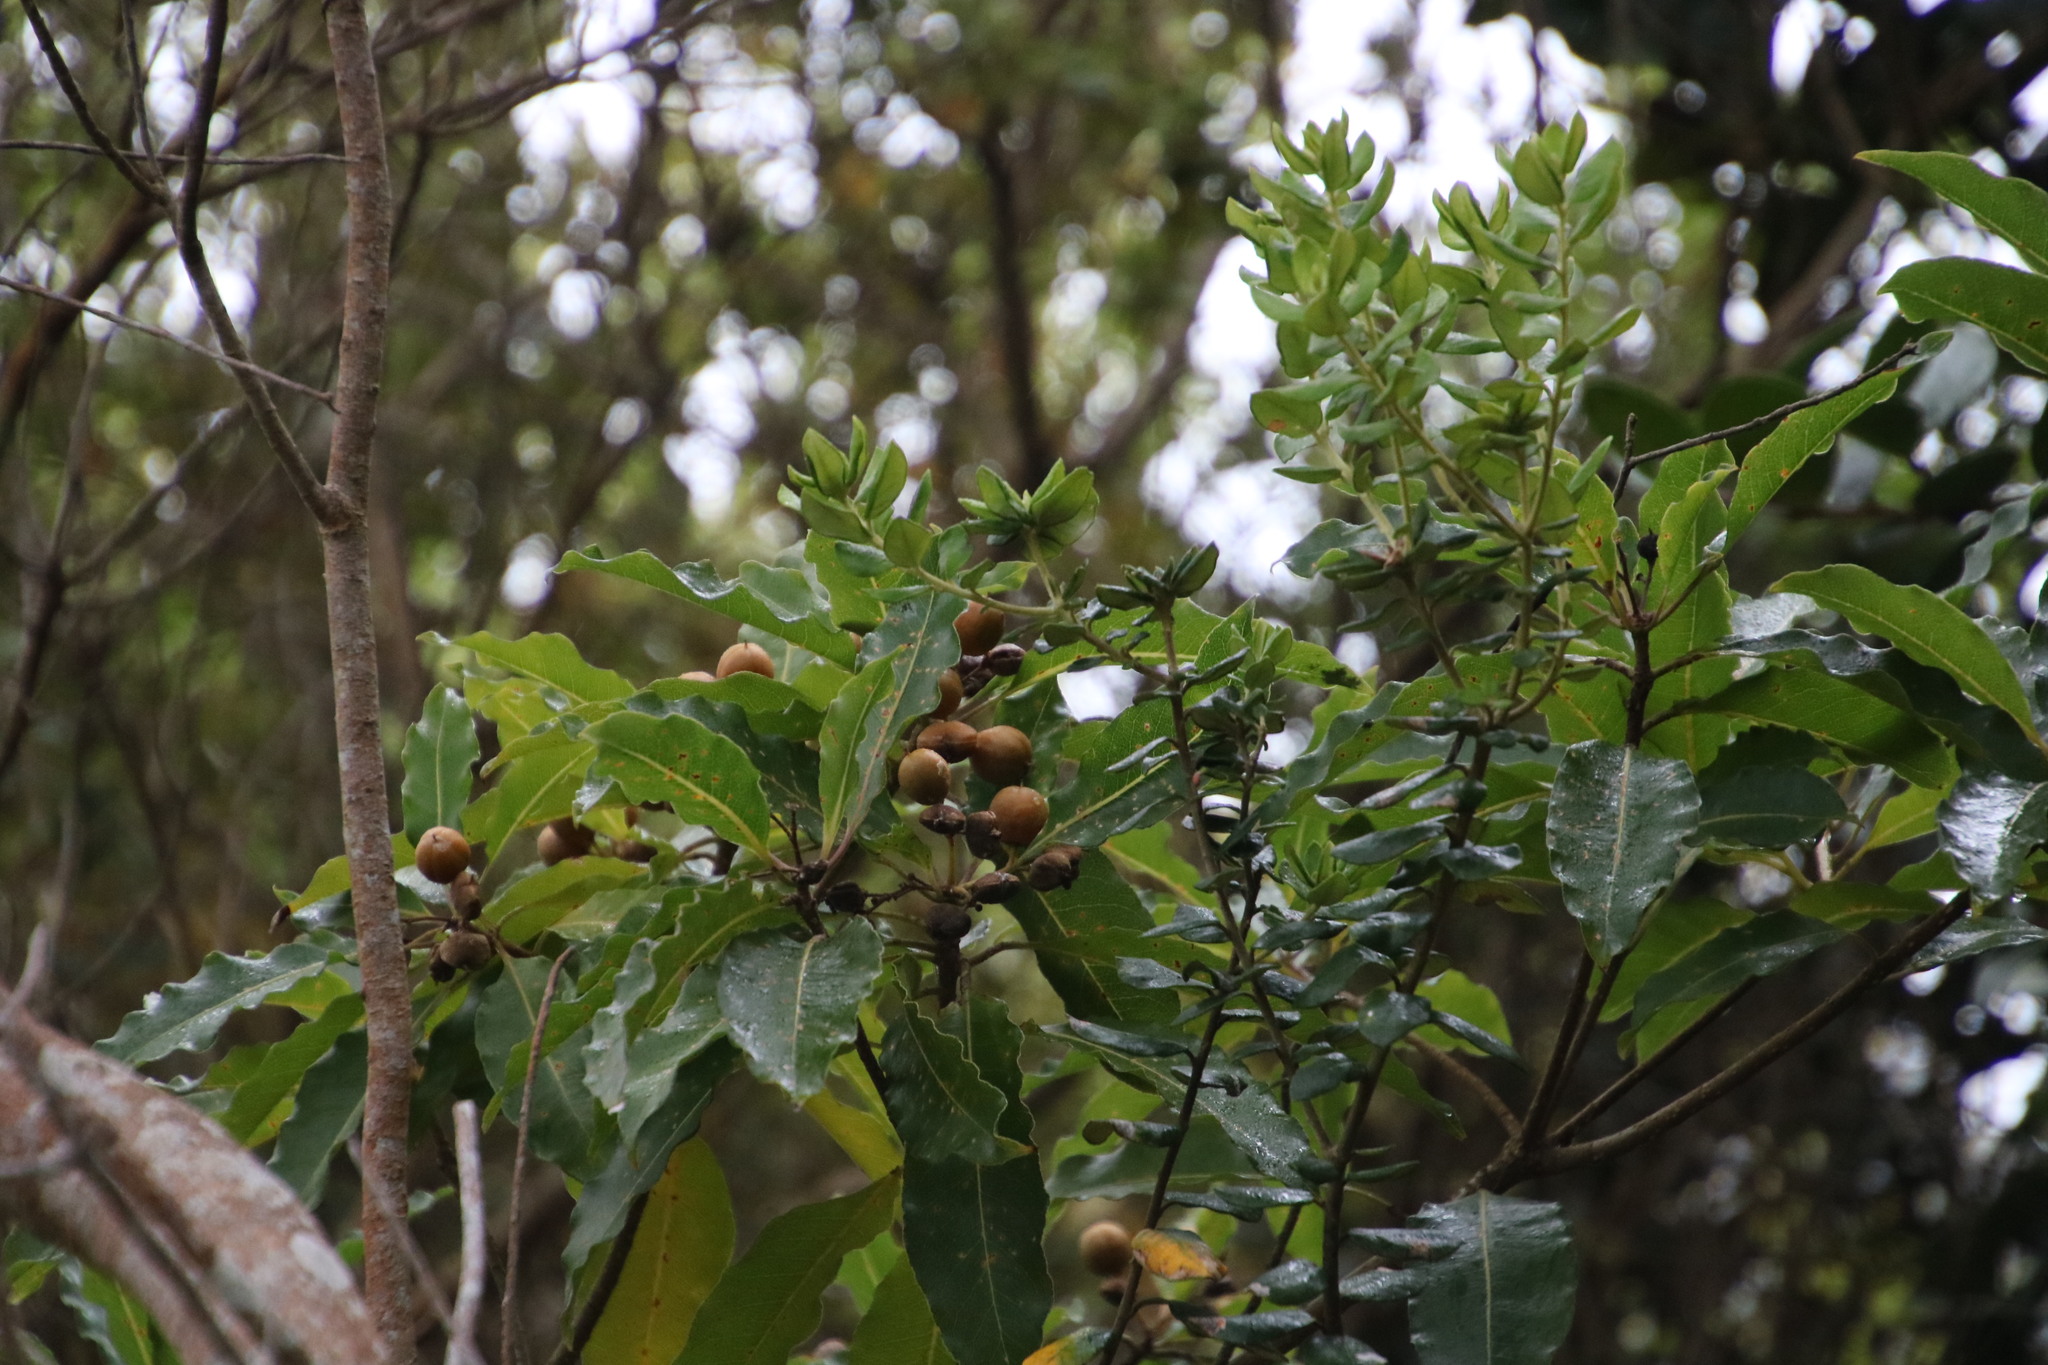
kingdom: Plantae
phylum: Tracheophyta
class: Magnoliopsida
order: Apiales
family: Pittosporaceae
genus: Pittosporum
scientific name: Pittosporum undulatum
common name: Australian cheesewood
